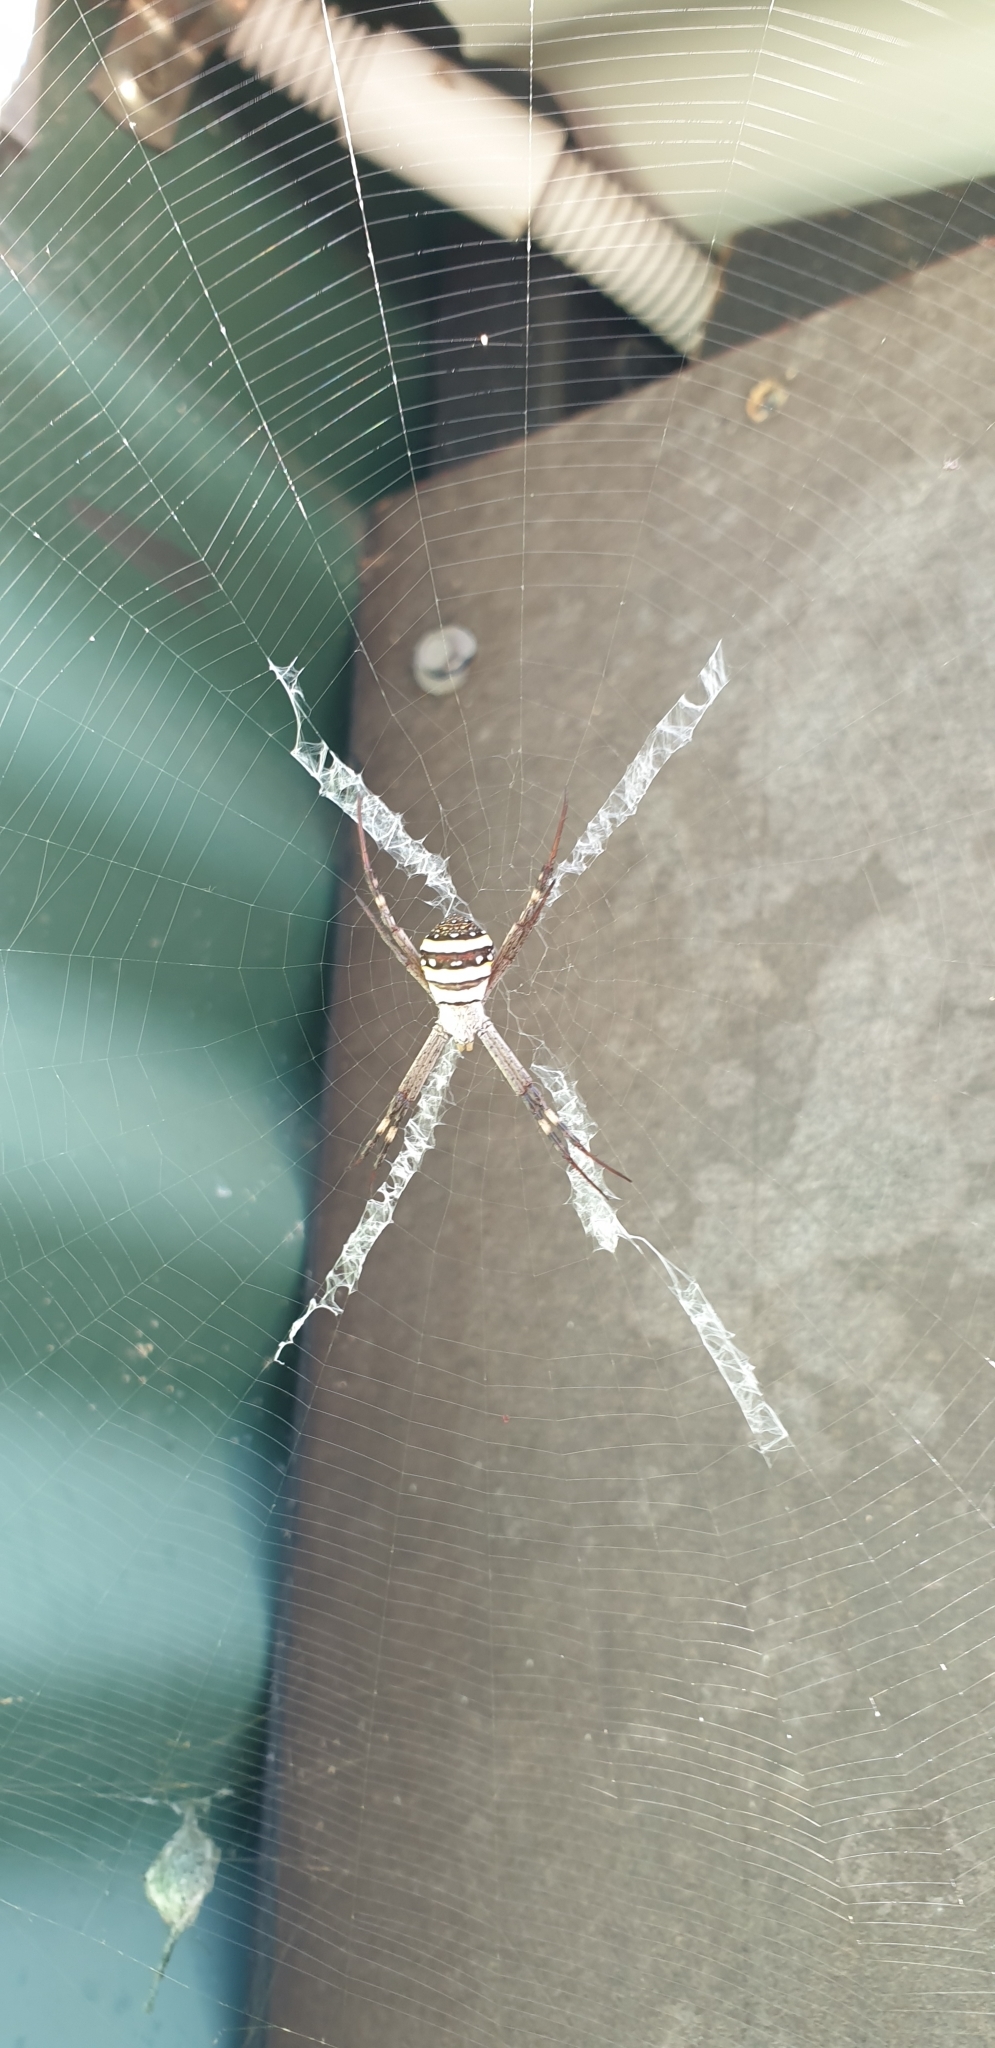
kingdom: Animalia
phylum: Arthropoda
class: Arachnida
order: Araneae
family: Araneidae
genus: Argiope
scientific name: Argiope keyserlingi
